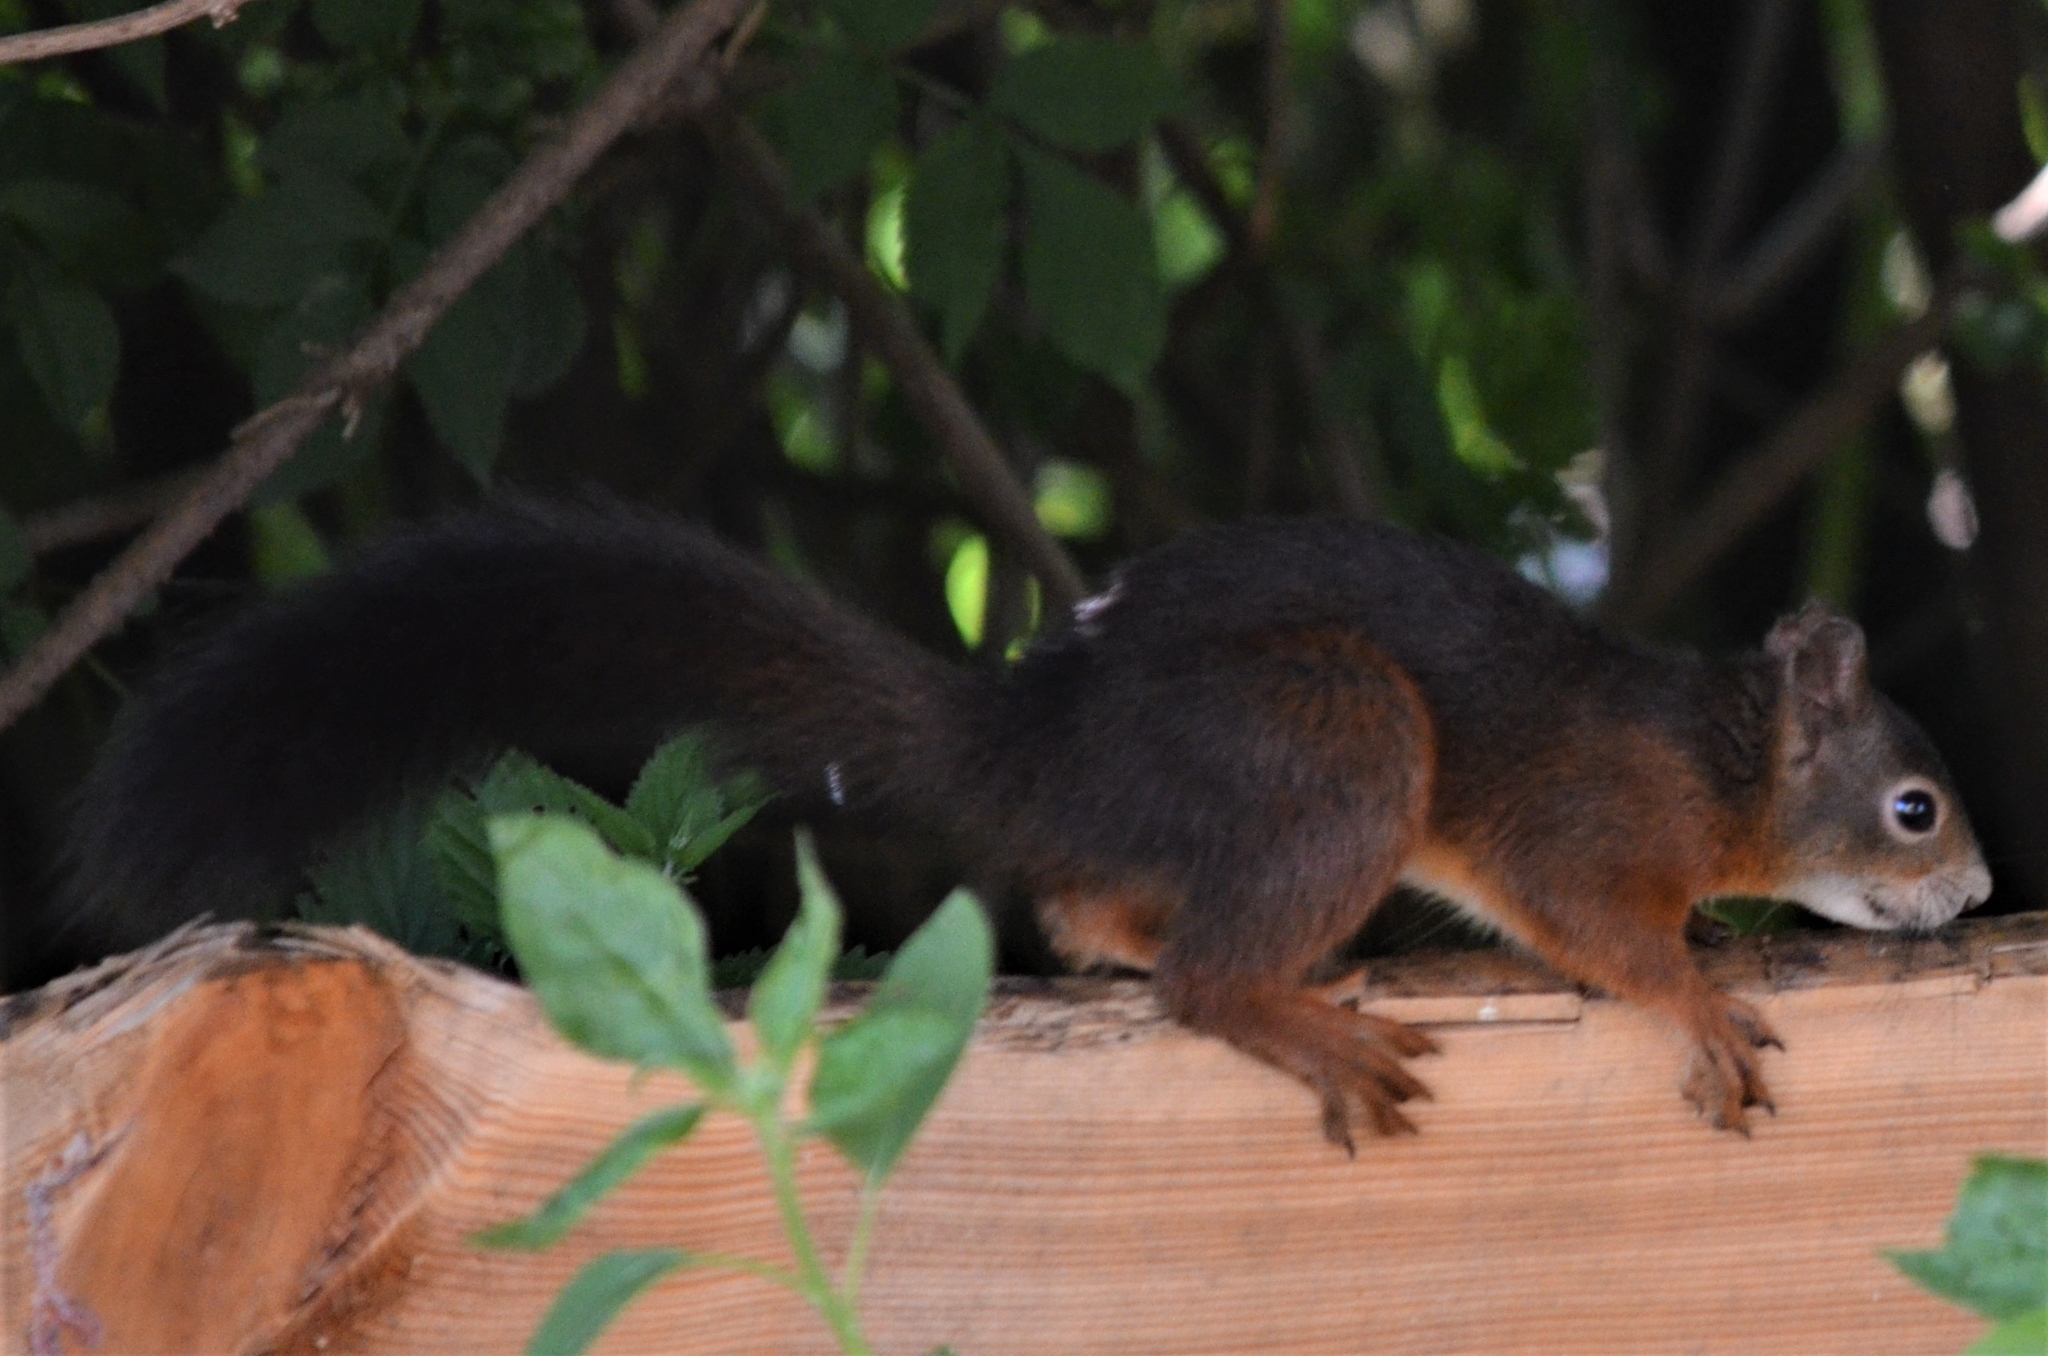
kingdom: Animalia
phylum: Chordata
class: Mammalia
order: Rodentia
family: Sciuridae
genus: Sciurus
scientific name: Sciurus vulgaris
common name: Eurasian red squirrel
